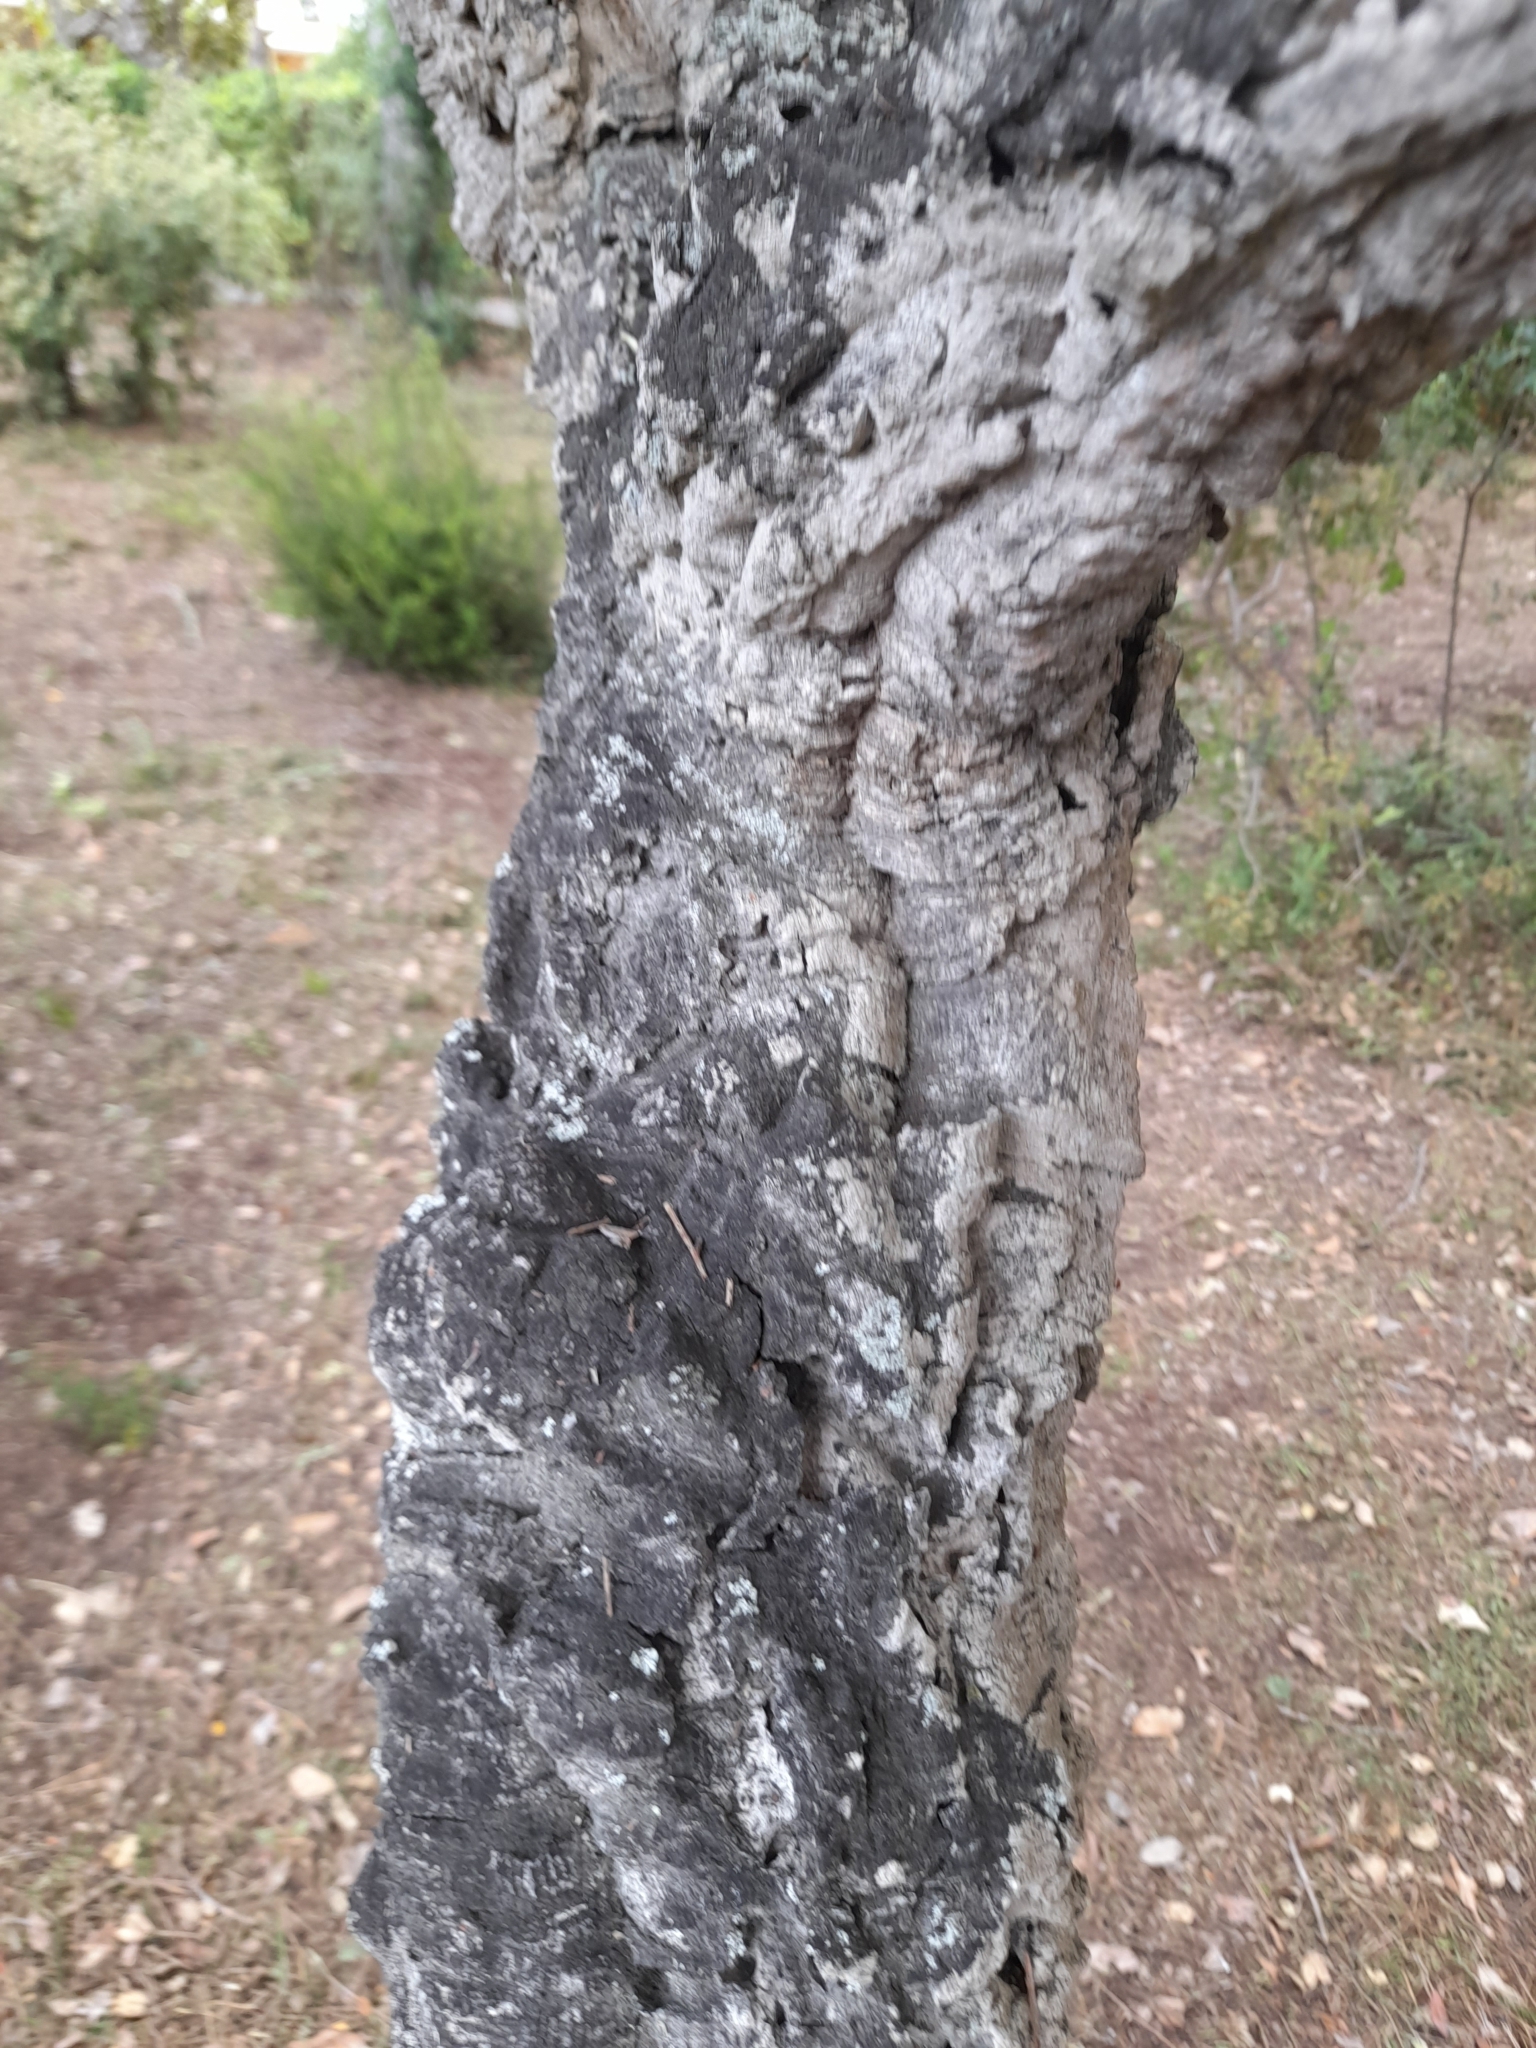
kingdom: Plantae
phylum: Tracheophyta
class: Magnoliopsida
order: Fagales
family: Fagaceae
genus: Quercus
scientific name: Quercus suber
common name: Cork oak
